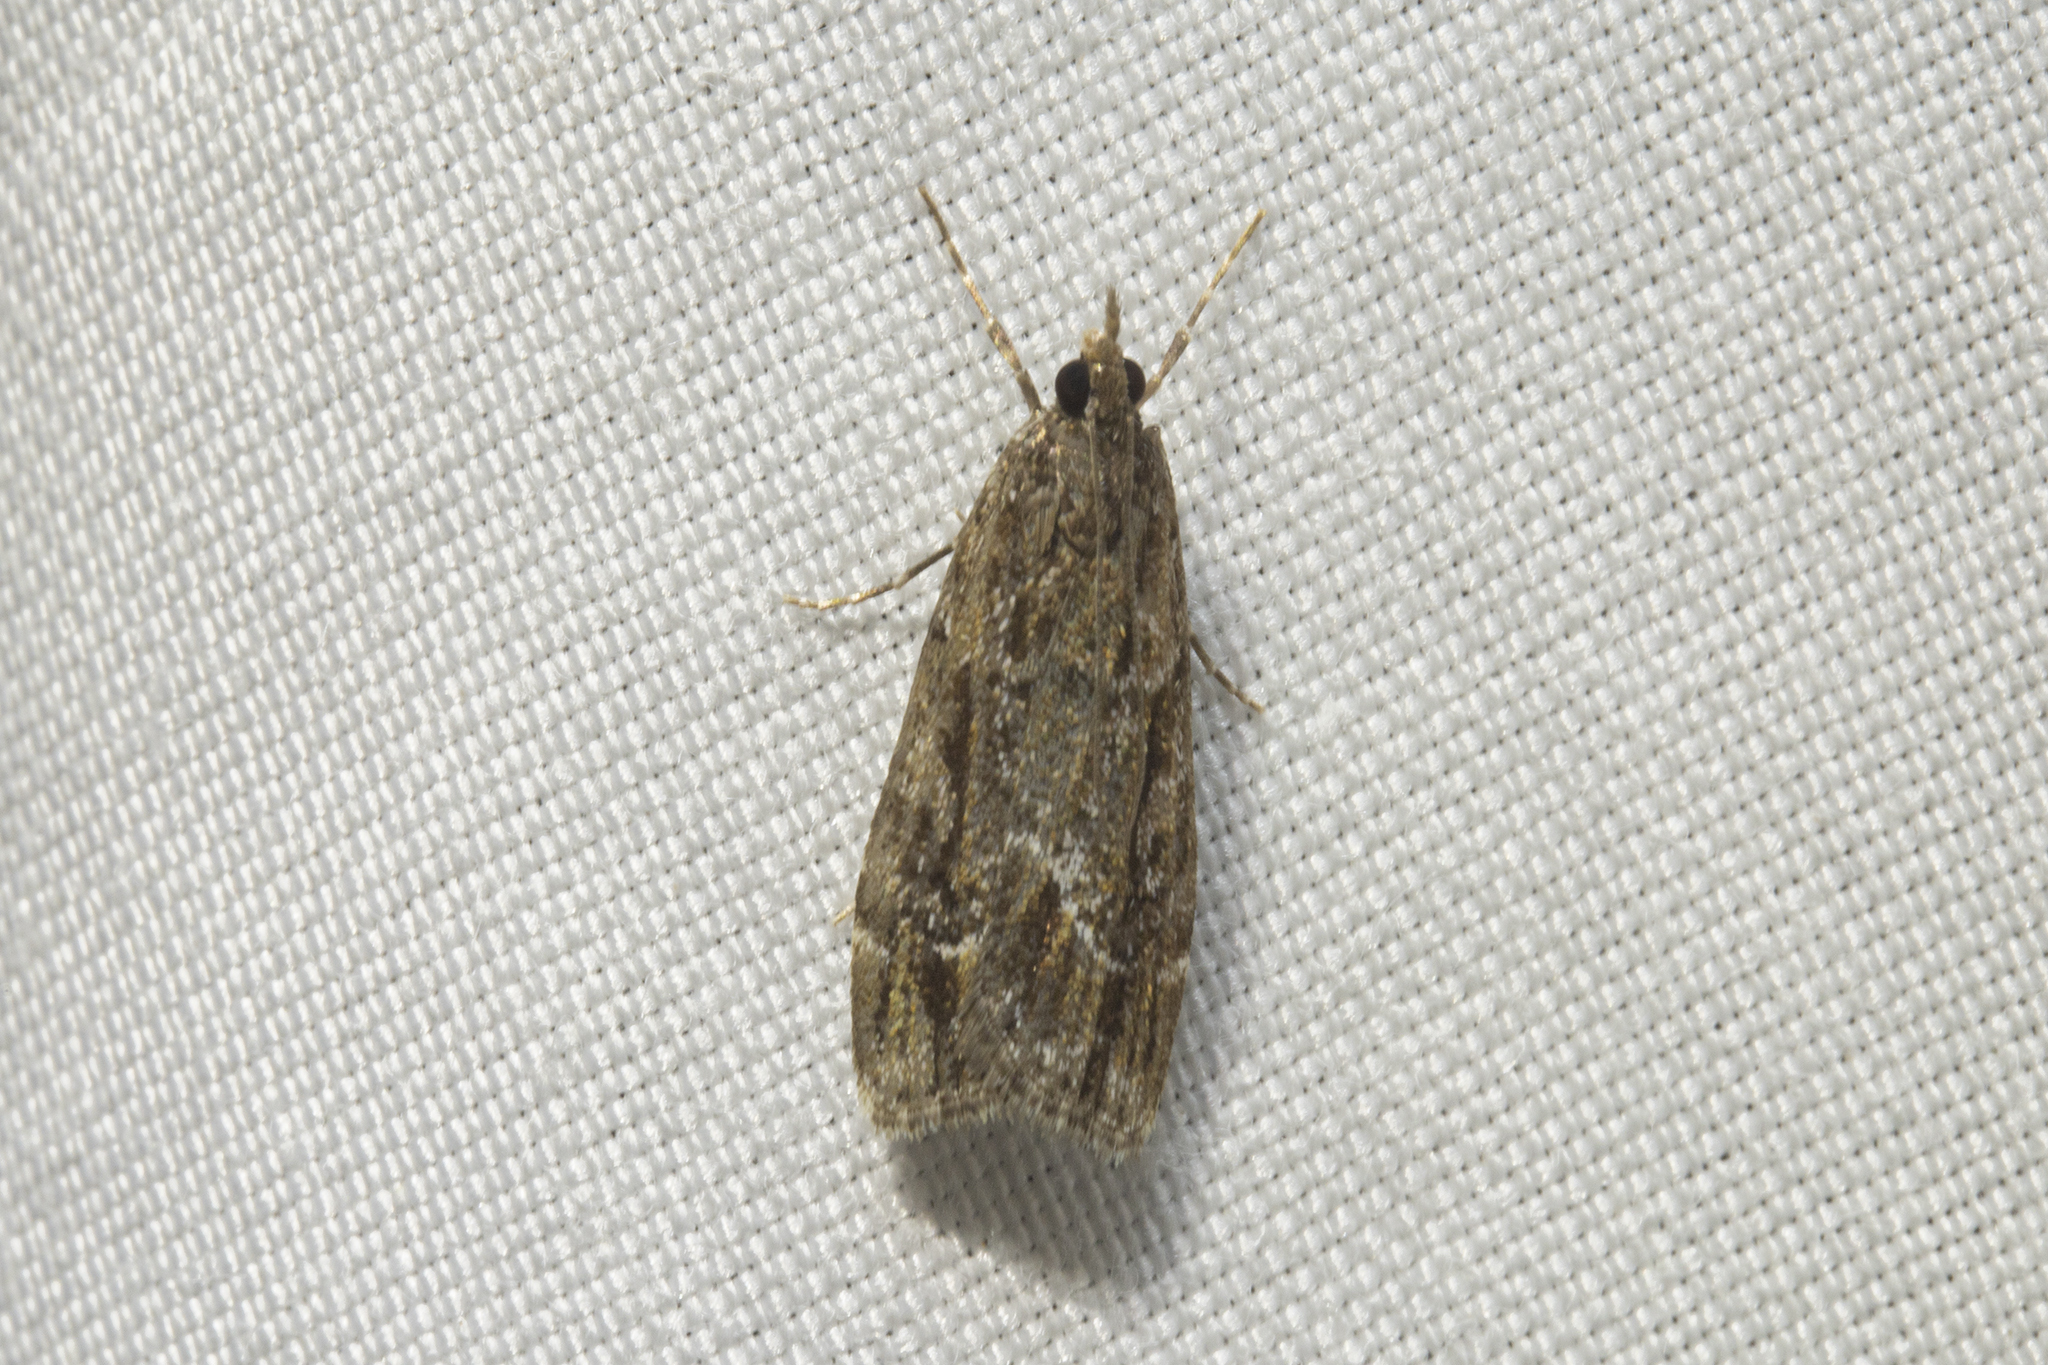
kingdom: Animalia
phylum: Arthropoda
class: Insecta
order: Lepidoptera
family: Crambidae
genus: Eudonia
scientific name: Eudonia submarginalis
